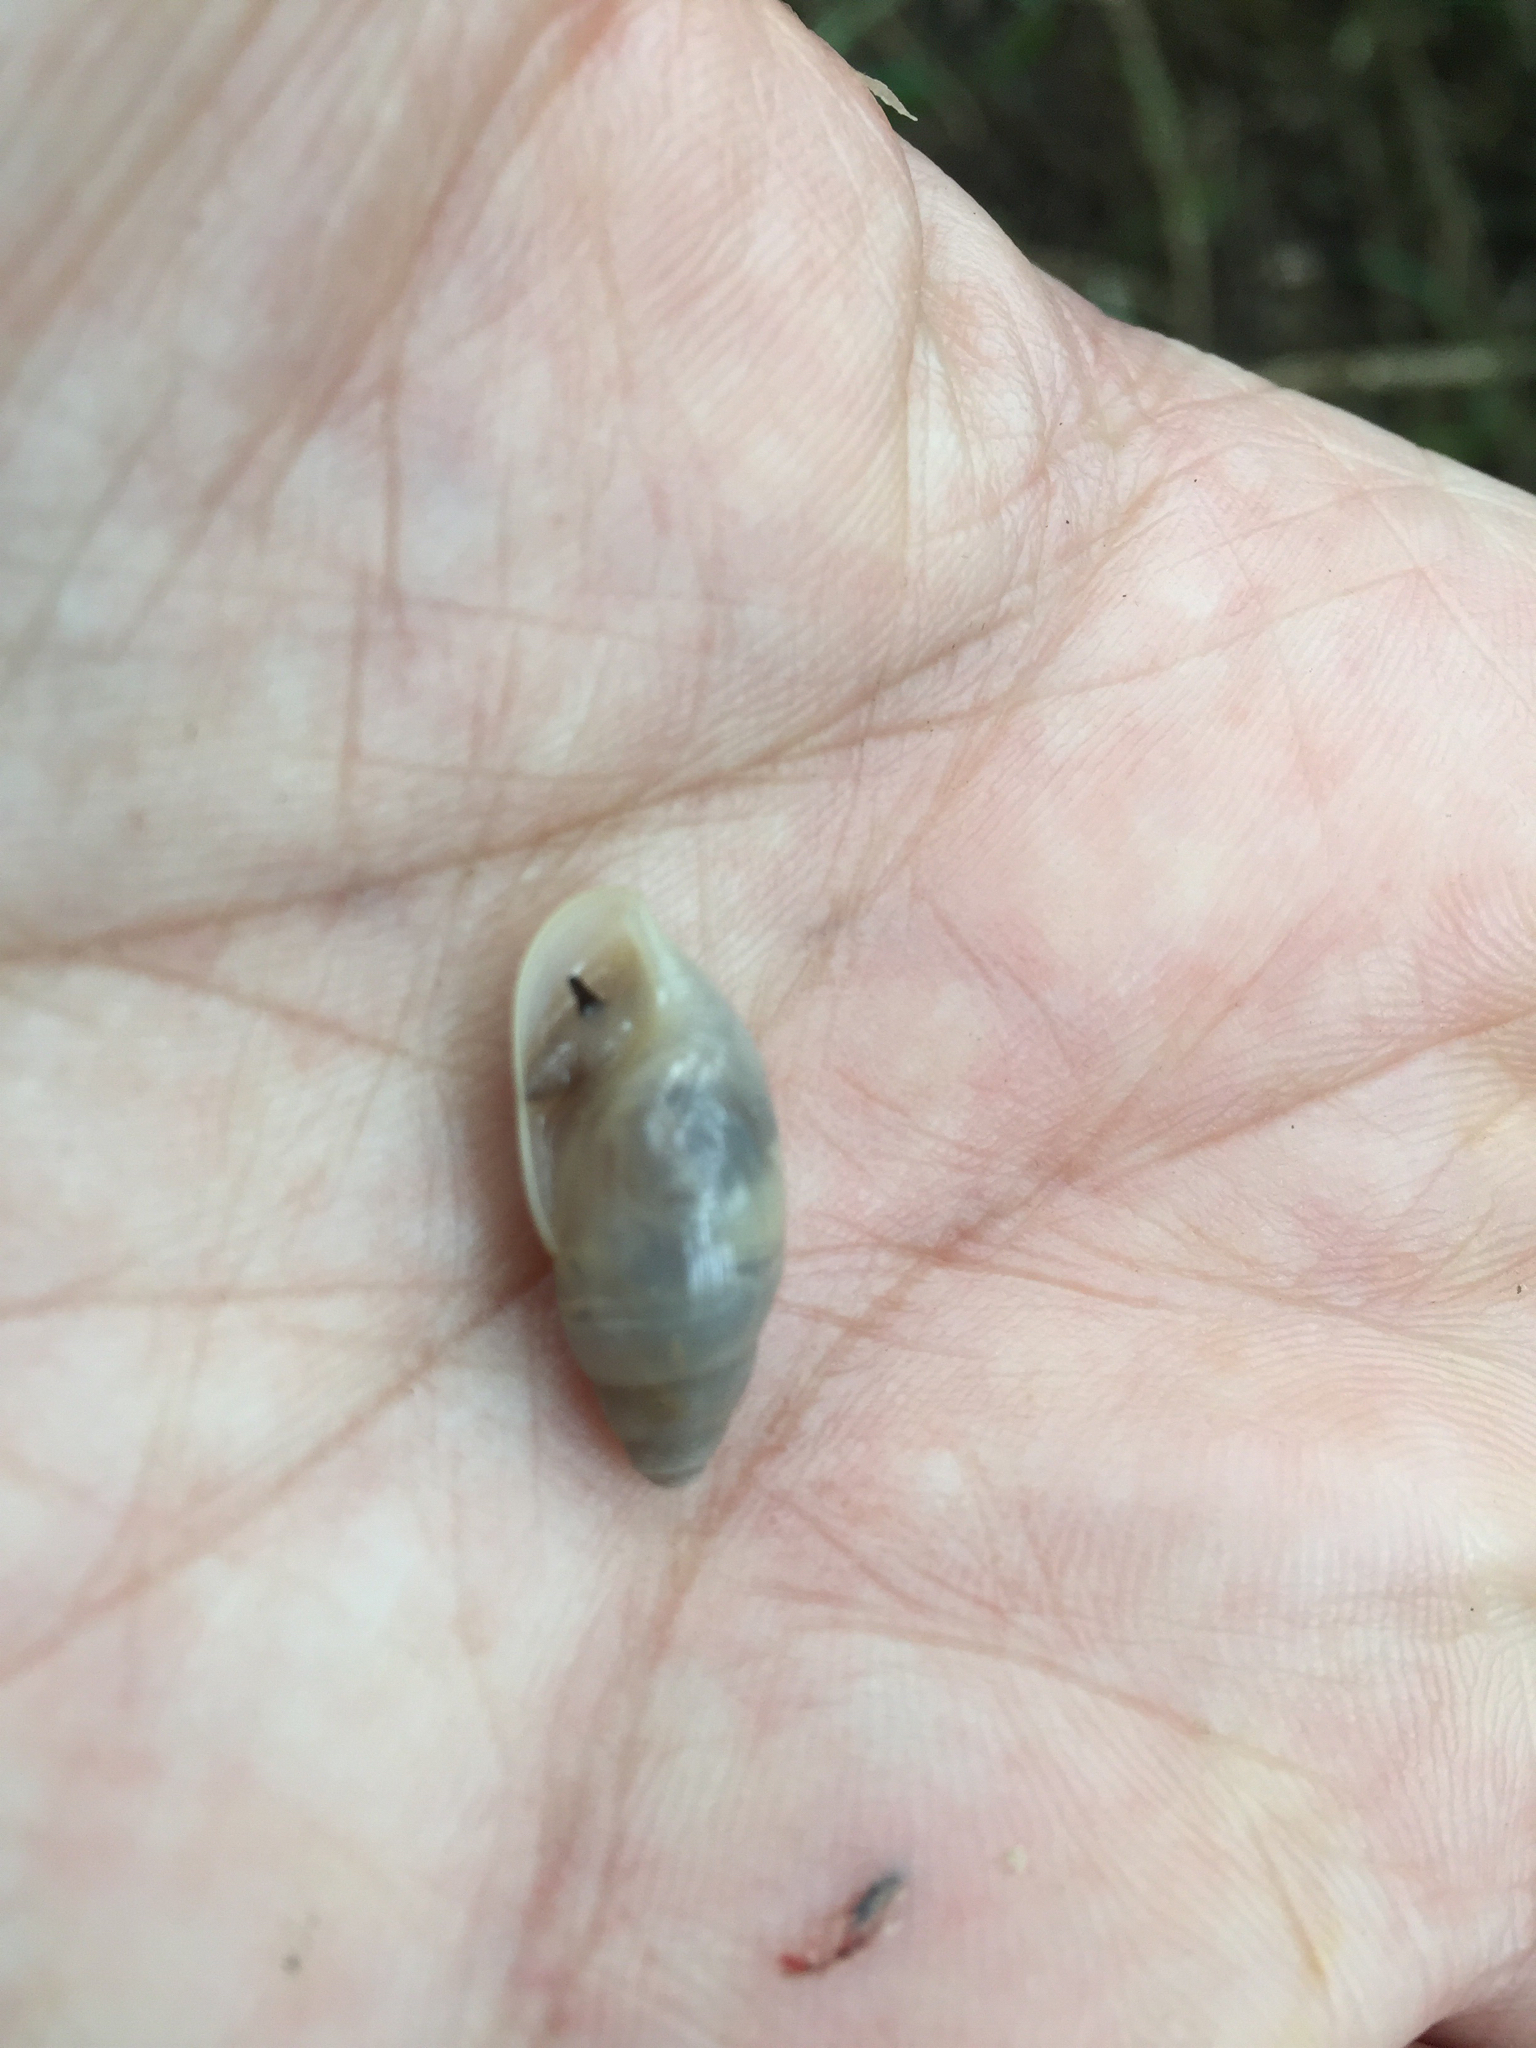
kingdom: Animalia
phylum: Mollusca
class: Gastropoda
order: Stylommatophora
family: Spiraxidae
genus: Euglandina
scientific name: Euglandina texasiana
